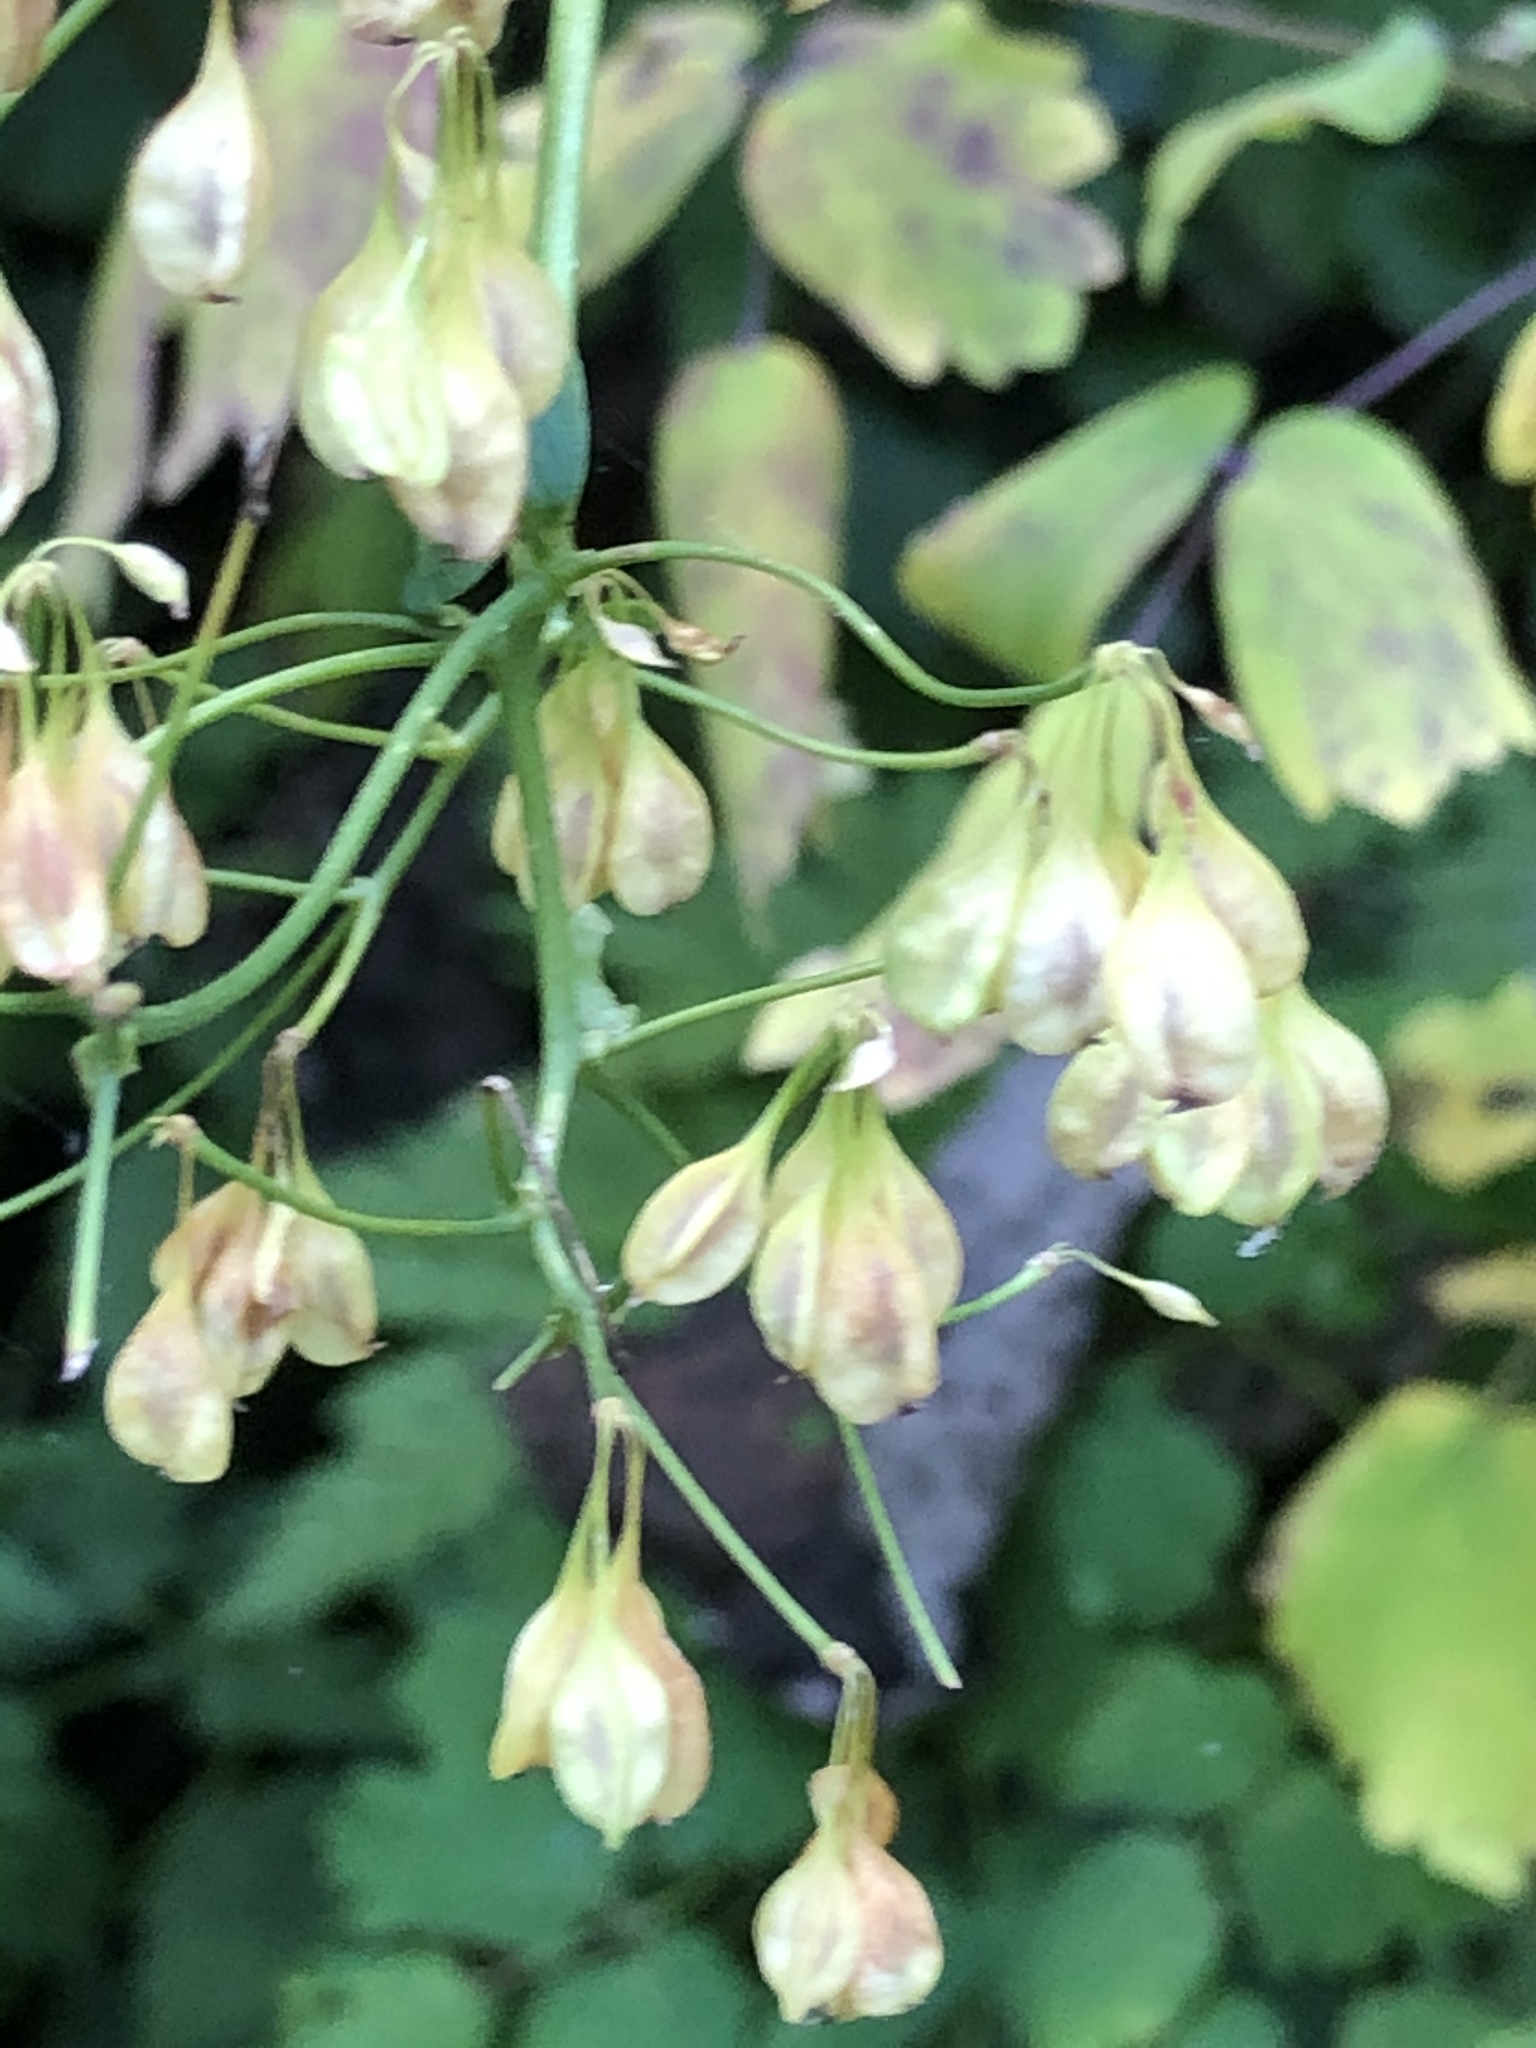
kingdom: Plantae
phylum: Tracheophyta
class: Magnoliopsida
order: Ranunculales
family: Ranunculaceae
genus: Thalictrum
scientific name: Thalictrum aquilegiifolium
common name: French meadow-rue
